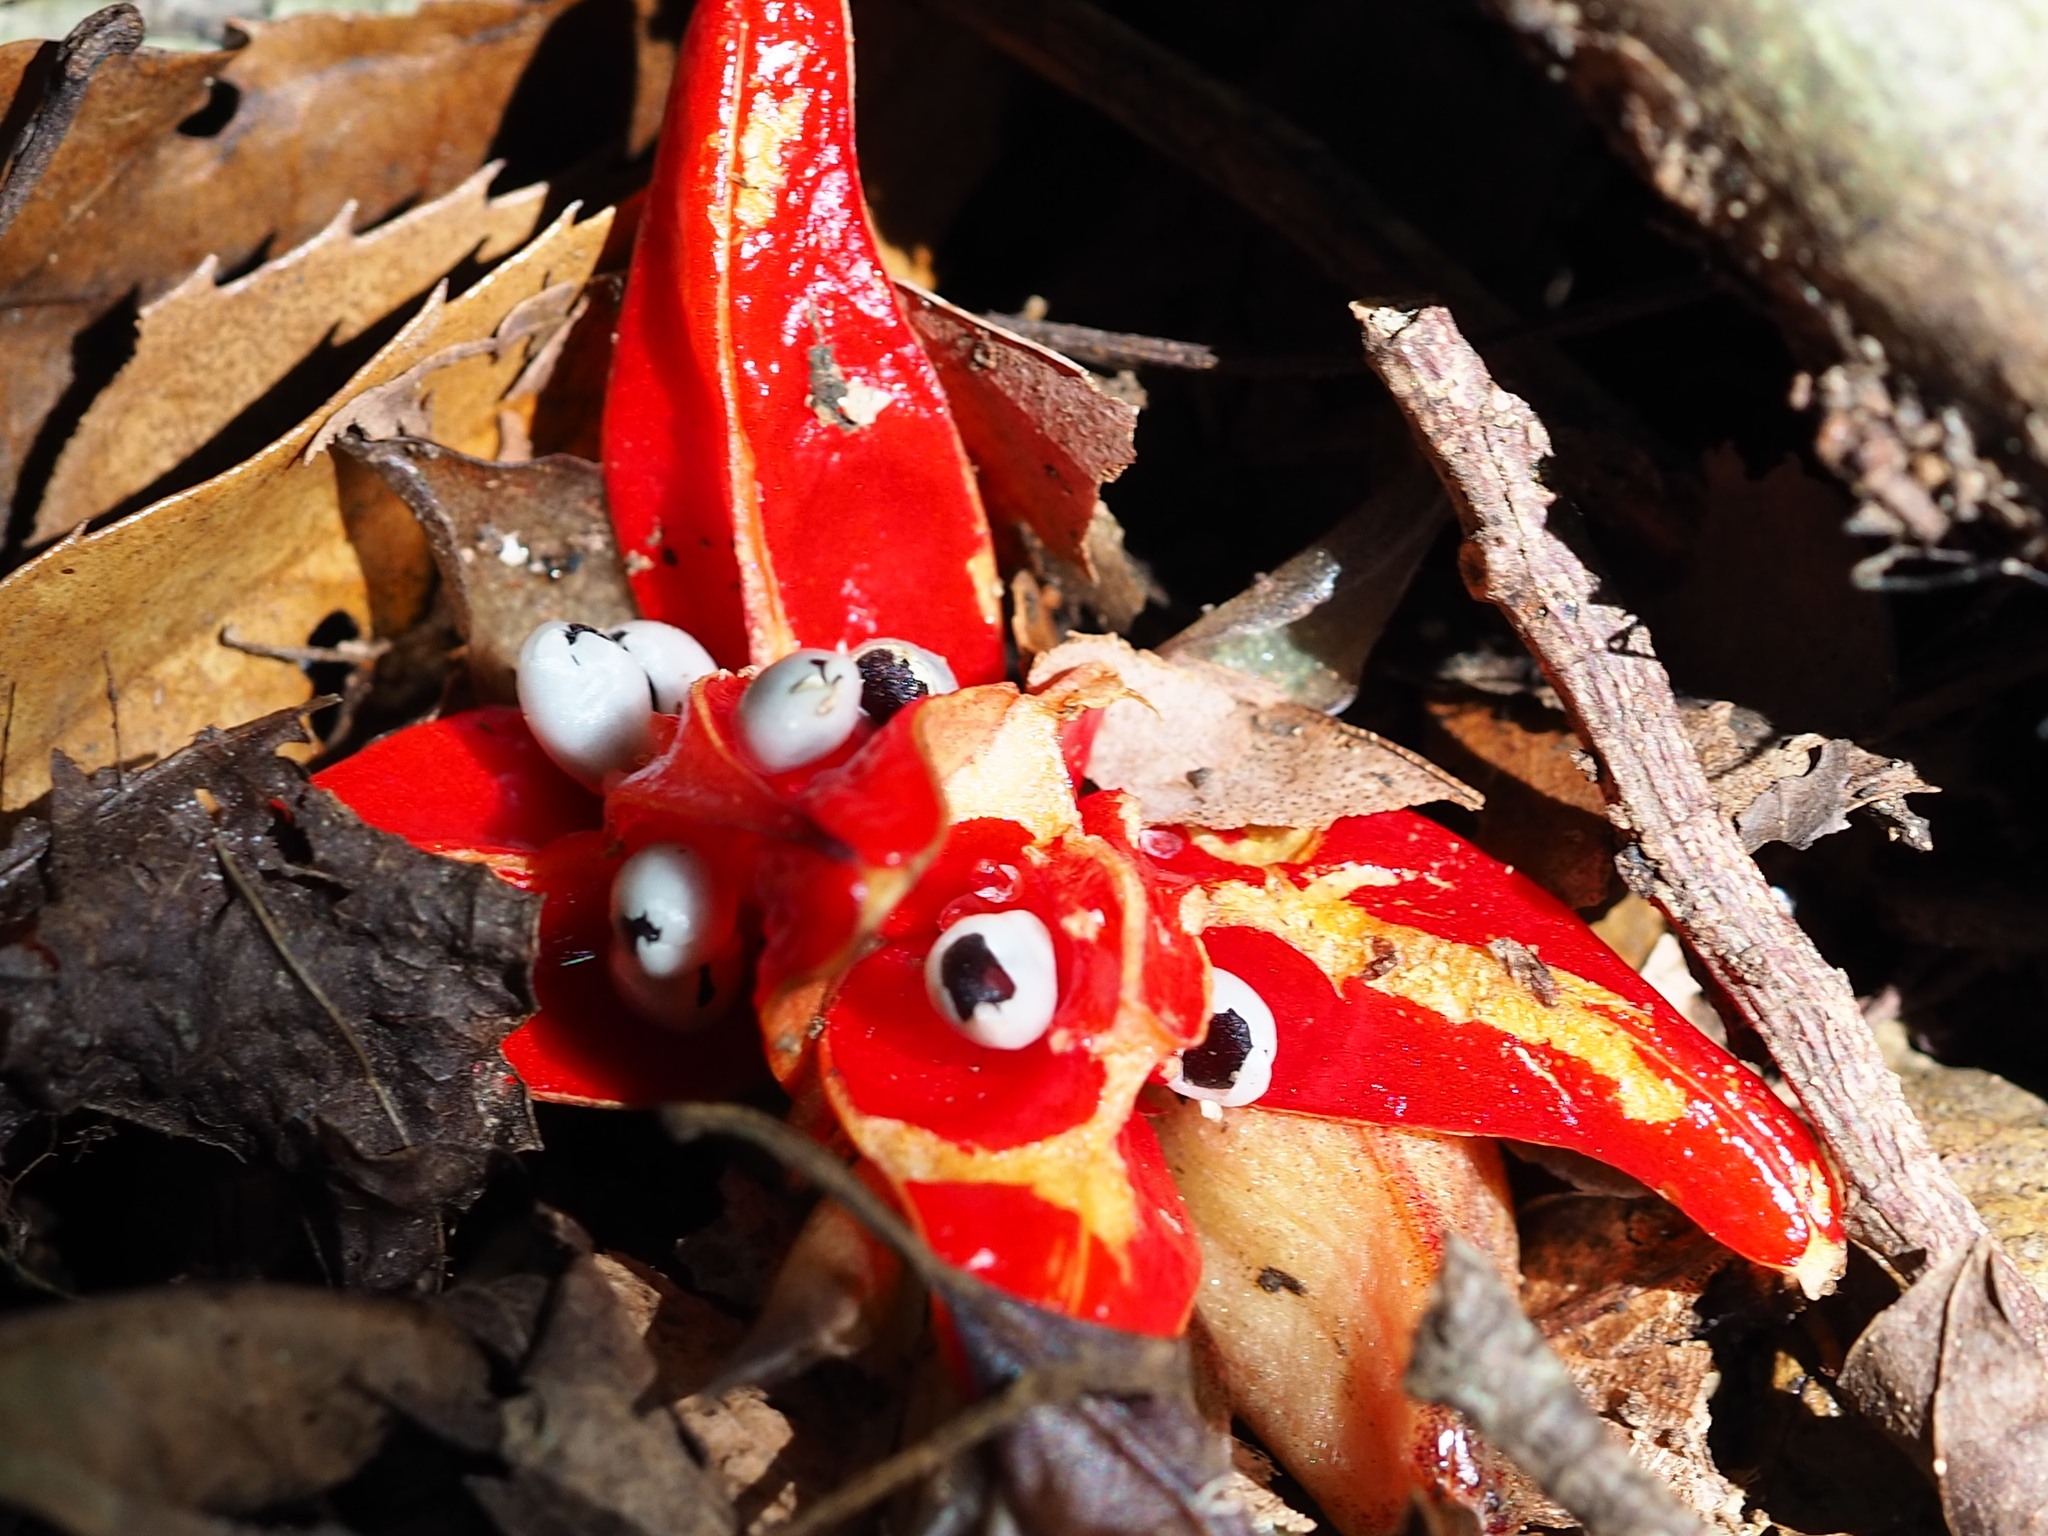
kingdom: Plantae
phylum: Tracheophyta
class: Liliopsida
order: Zingiberales
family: Zingiberaceae
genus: Zingiber
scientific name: Zingiber kawagoii
